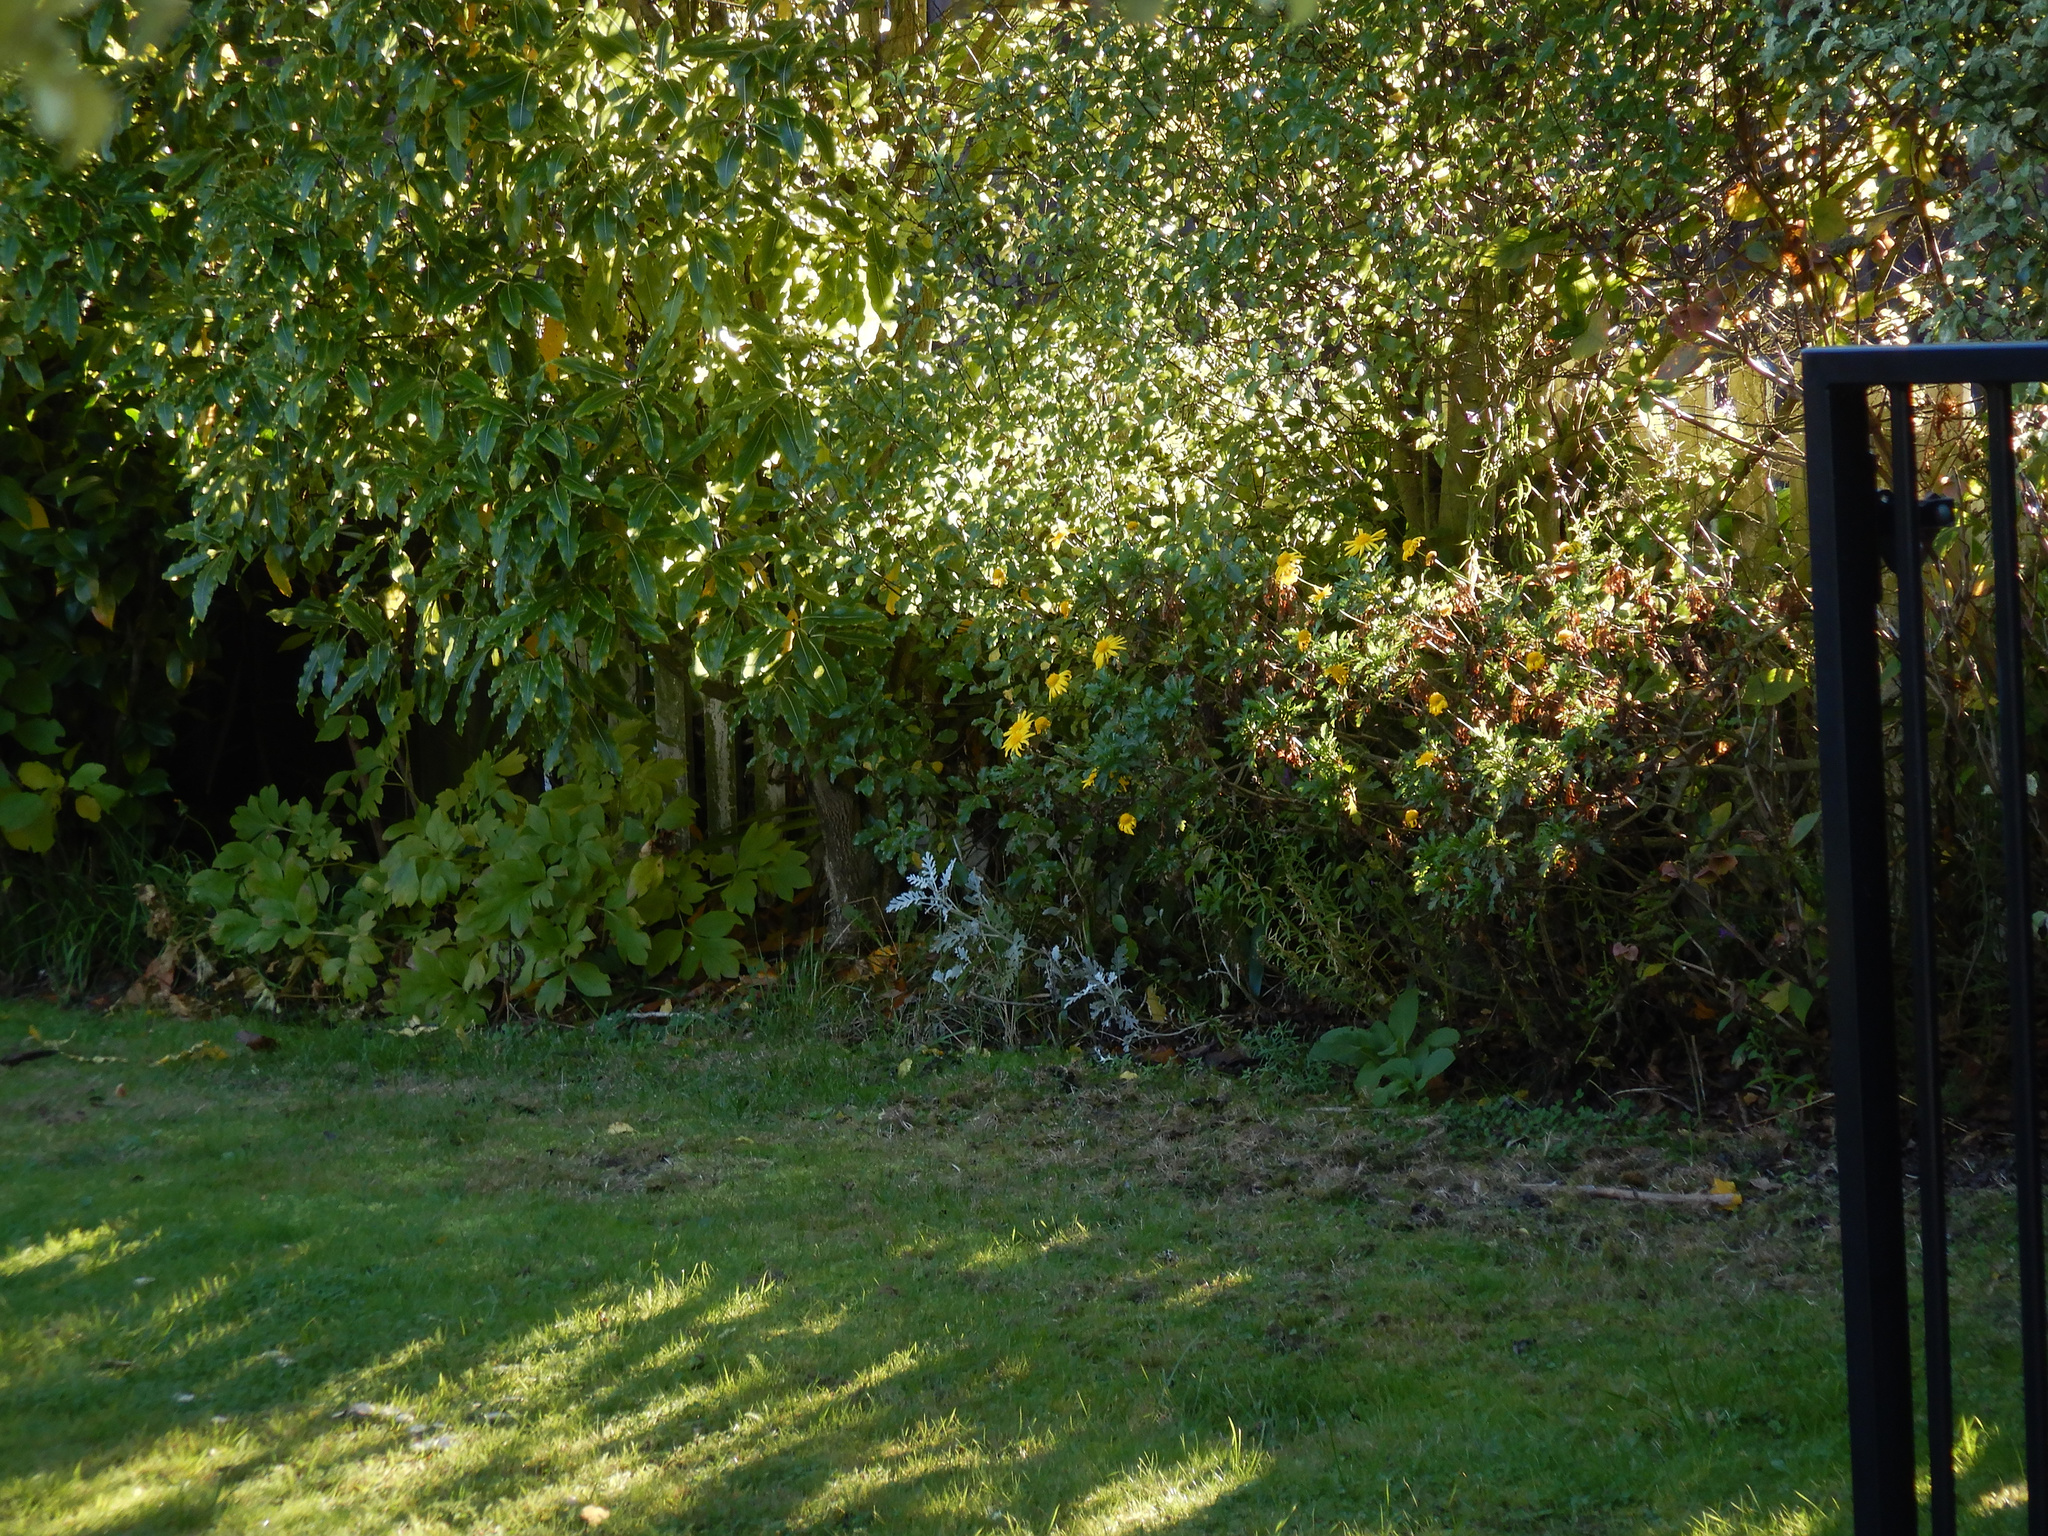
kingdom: Plantae
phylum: Tracheophyta
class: Magnoliopsida
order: Asterales
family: Asteraceae
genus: Jacobaea
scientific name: Jacobaea maritima
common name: Silver ragwort
